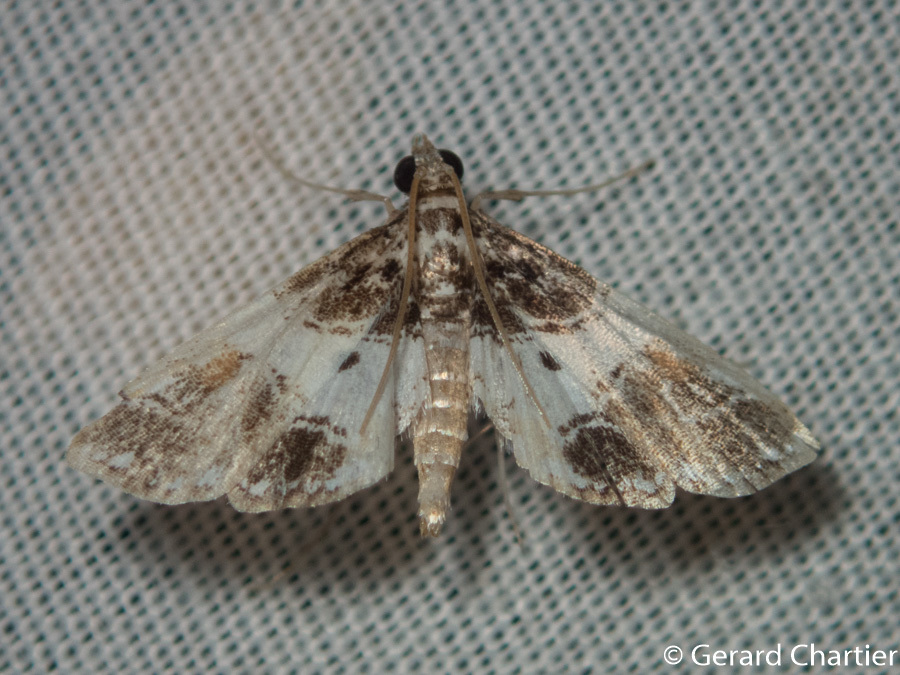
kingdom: Animalia
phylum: Arthropoda
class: Insecta
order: Lepidoptera
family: Crambidae
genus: Paracymoriza
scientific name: Paracymoriza albifascialis
